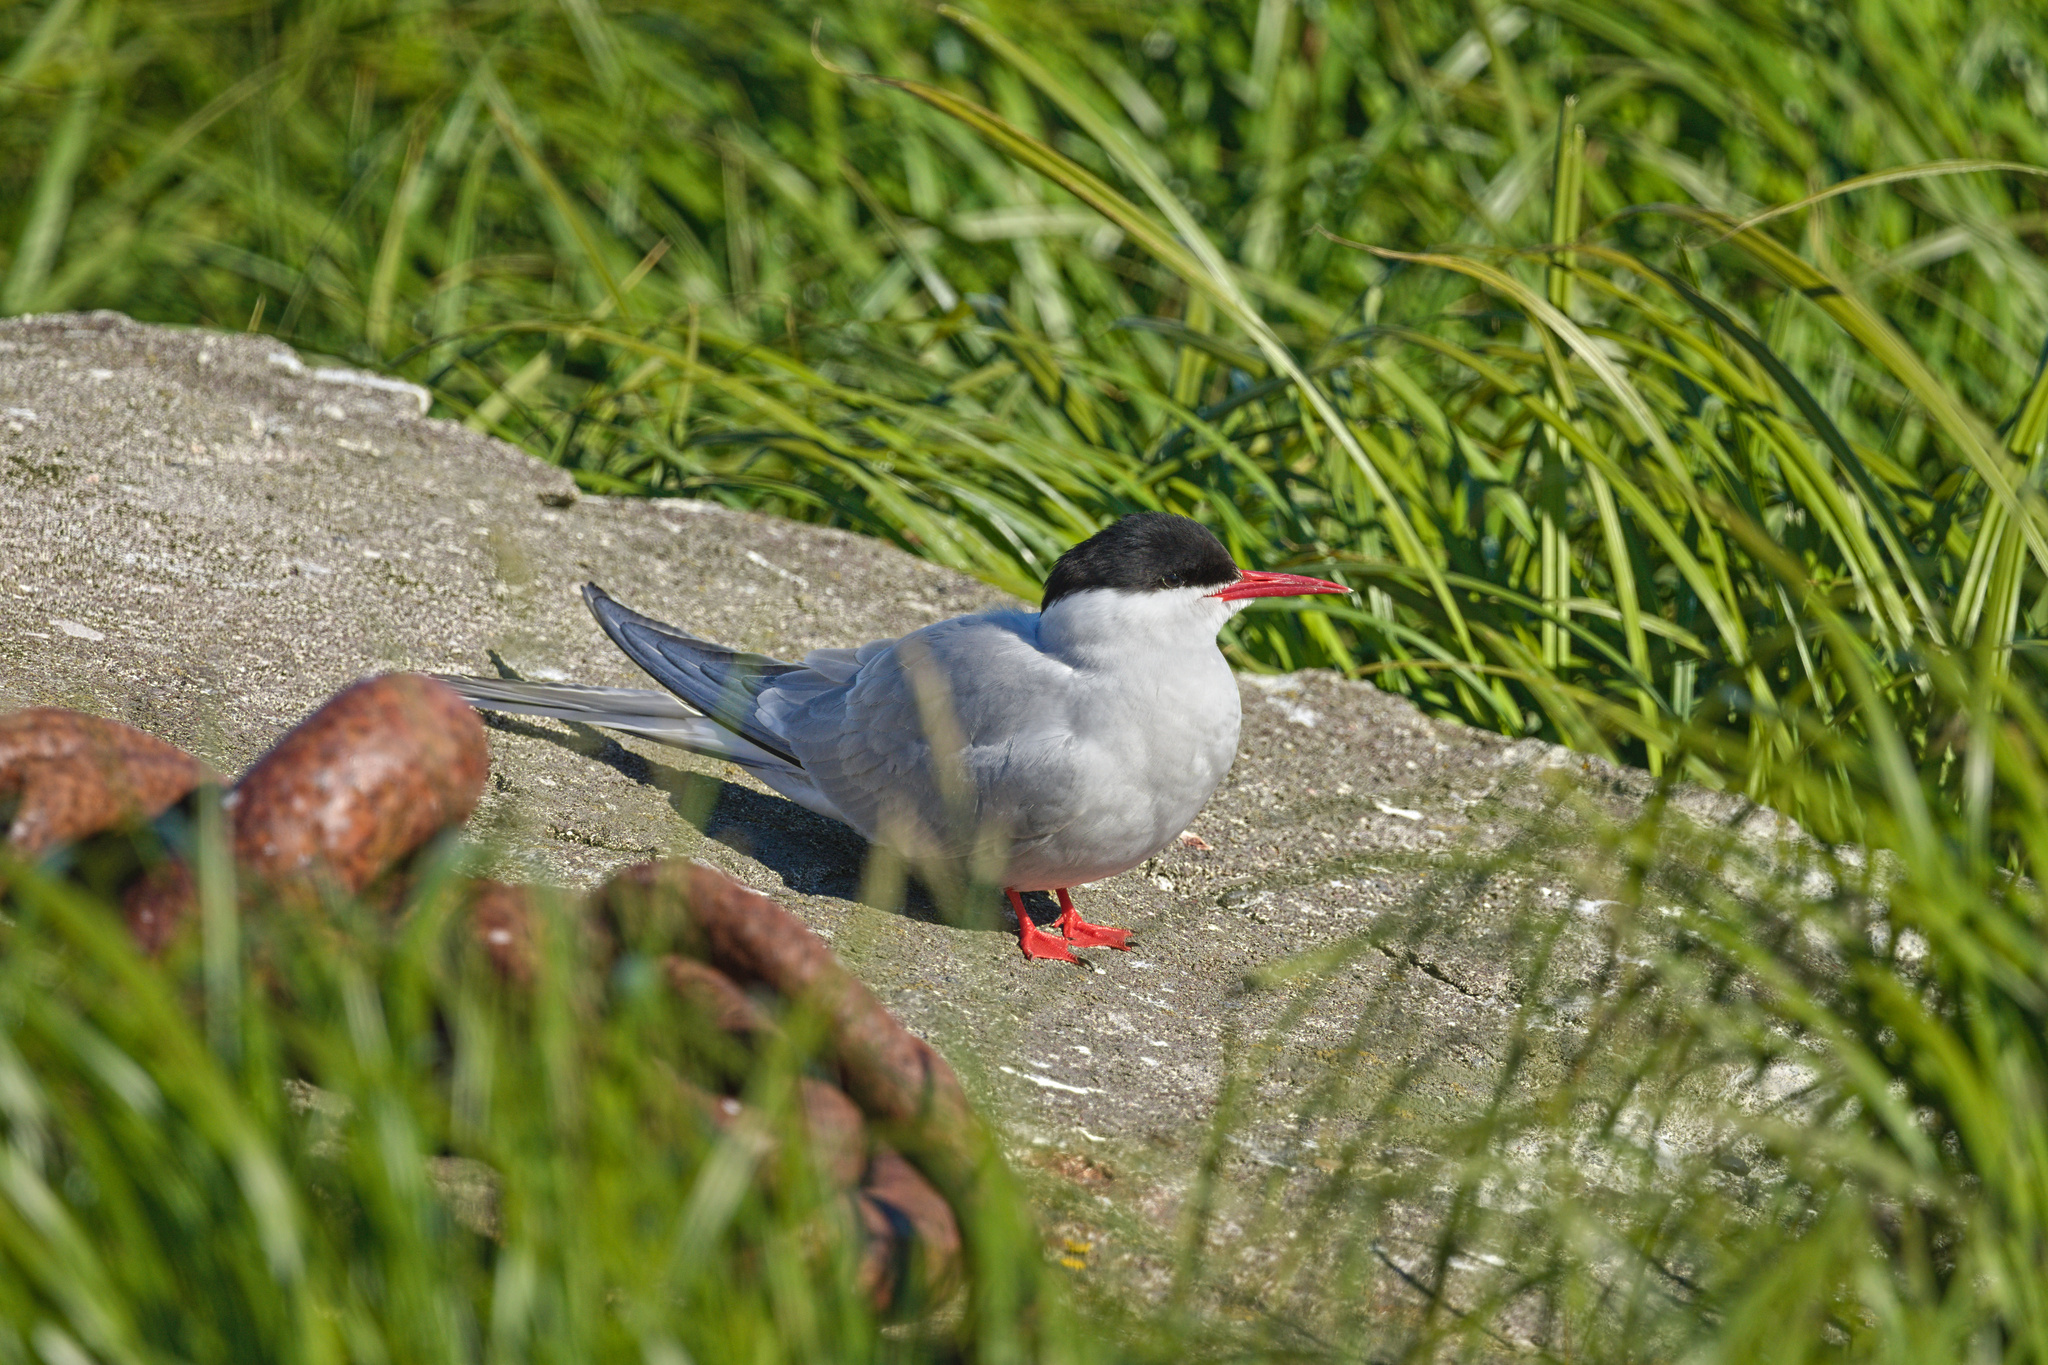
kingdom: Animalia
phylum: Chordata
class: Aves
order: Charadriiformes
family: Laridae
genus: Sterna
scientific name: Sterna paradisaea
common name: Arctic tern
